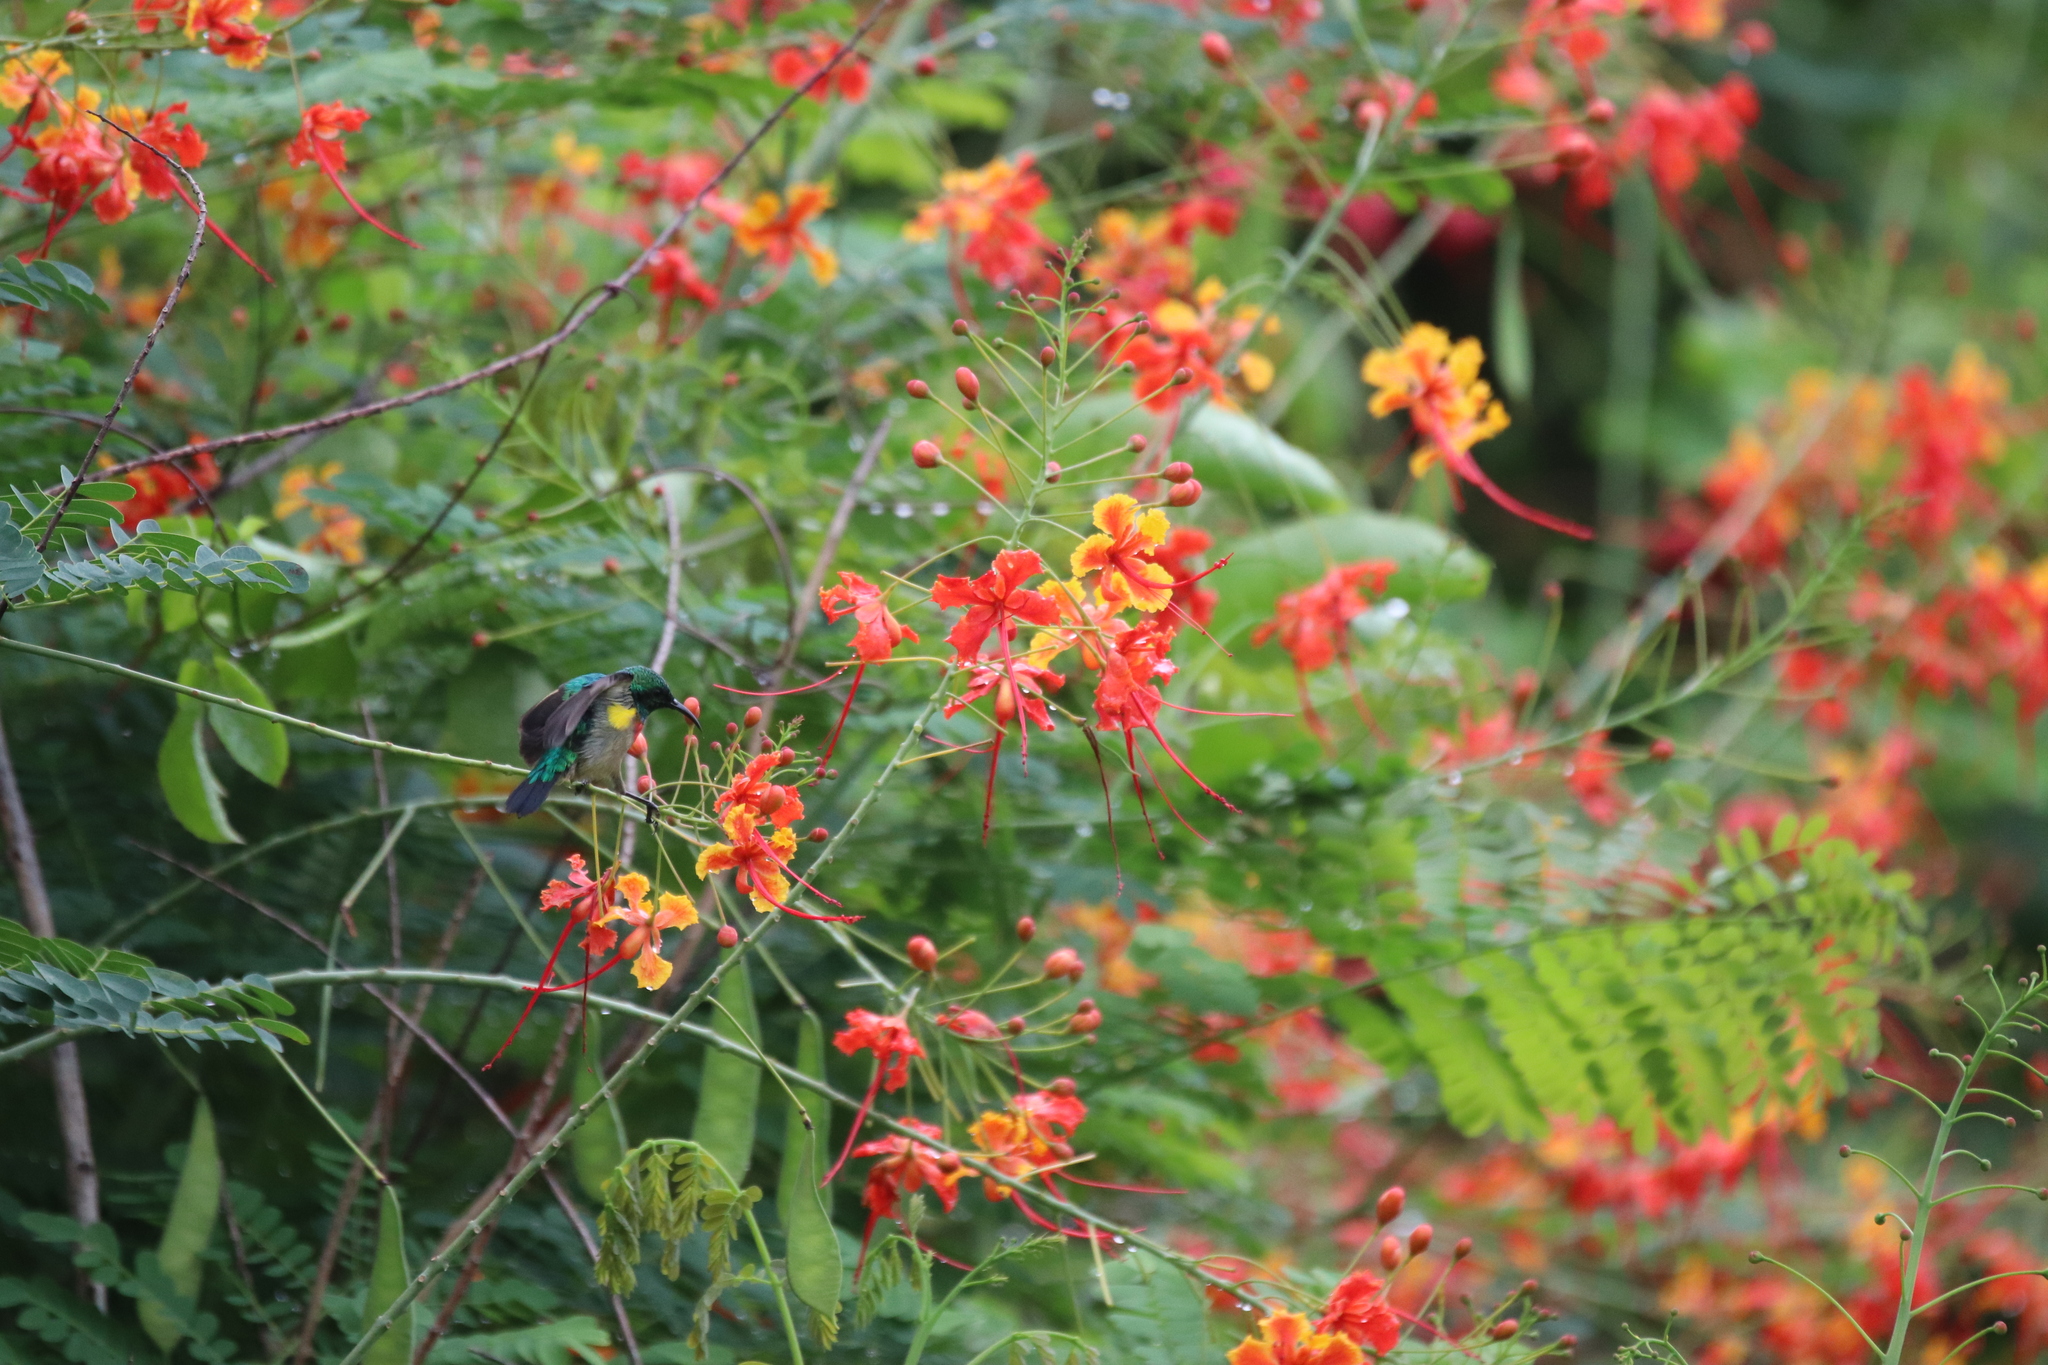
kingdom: Animalia
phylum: Chordata
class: Aves
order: Passeriformes
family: Nectariniidae
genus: Cinnyris
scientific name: Cinnyris chloropygius
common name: Olive-bellied sunbird
